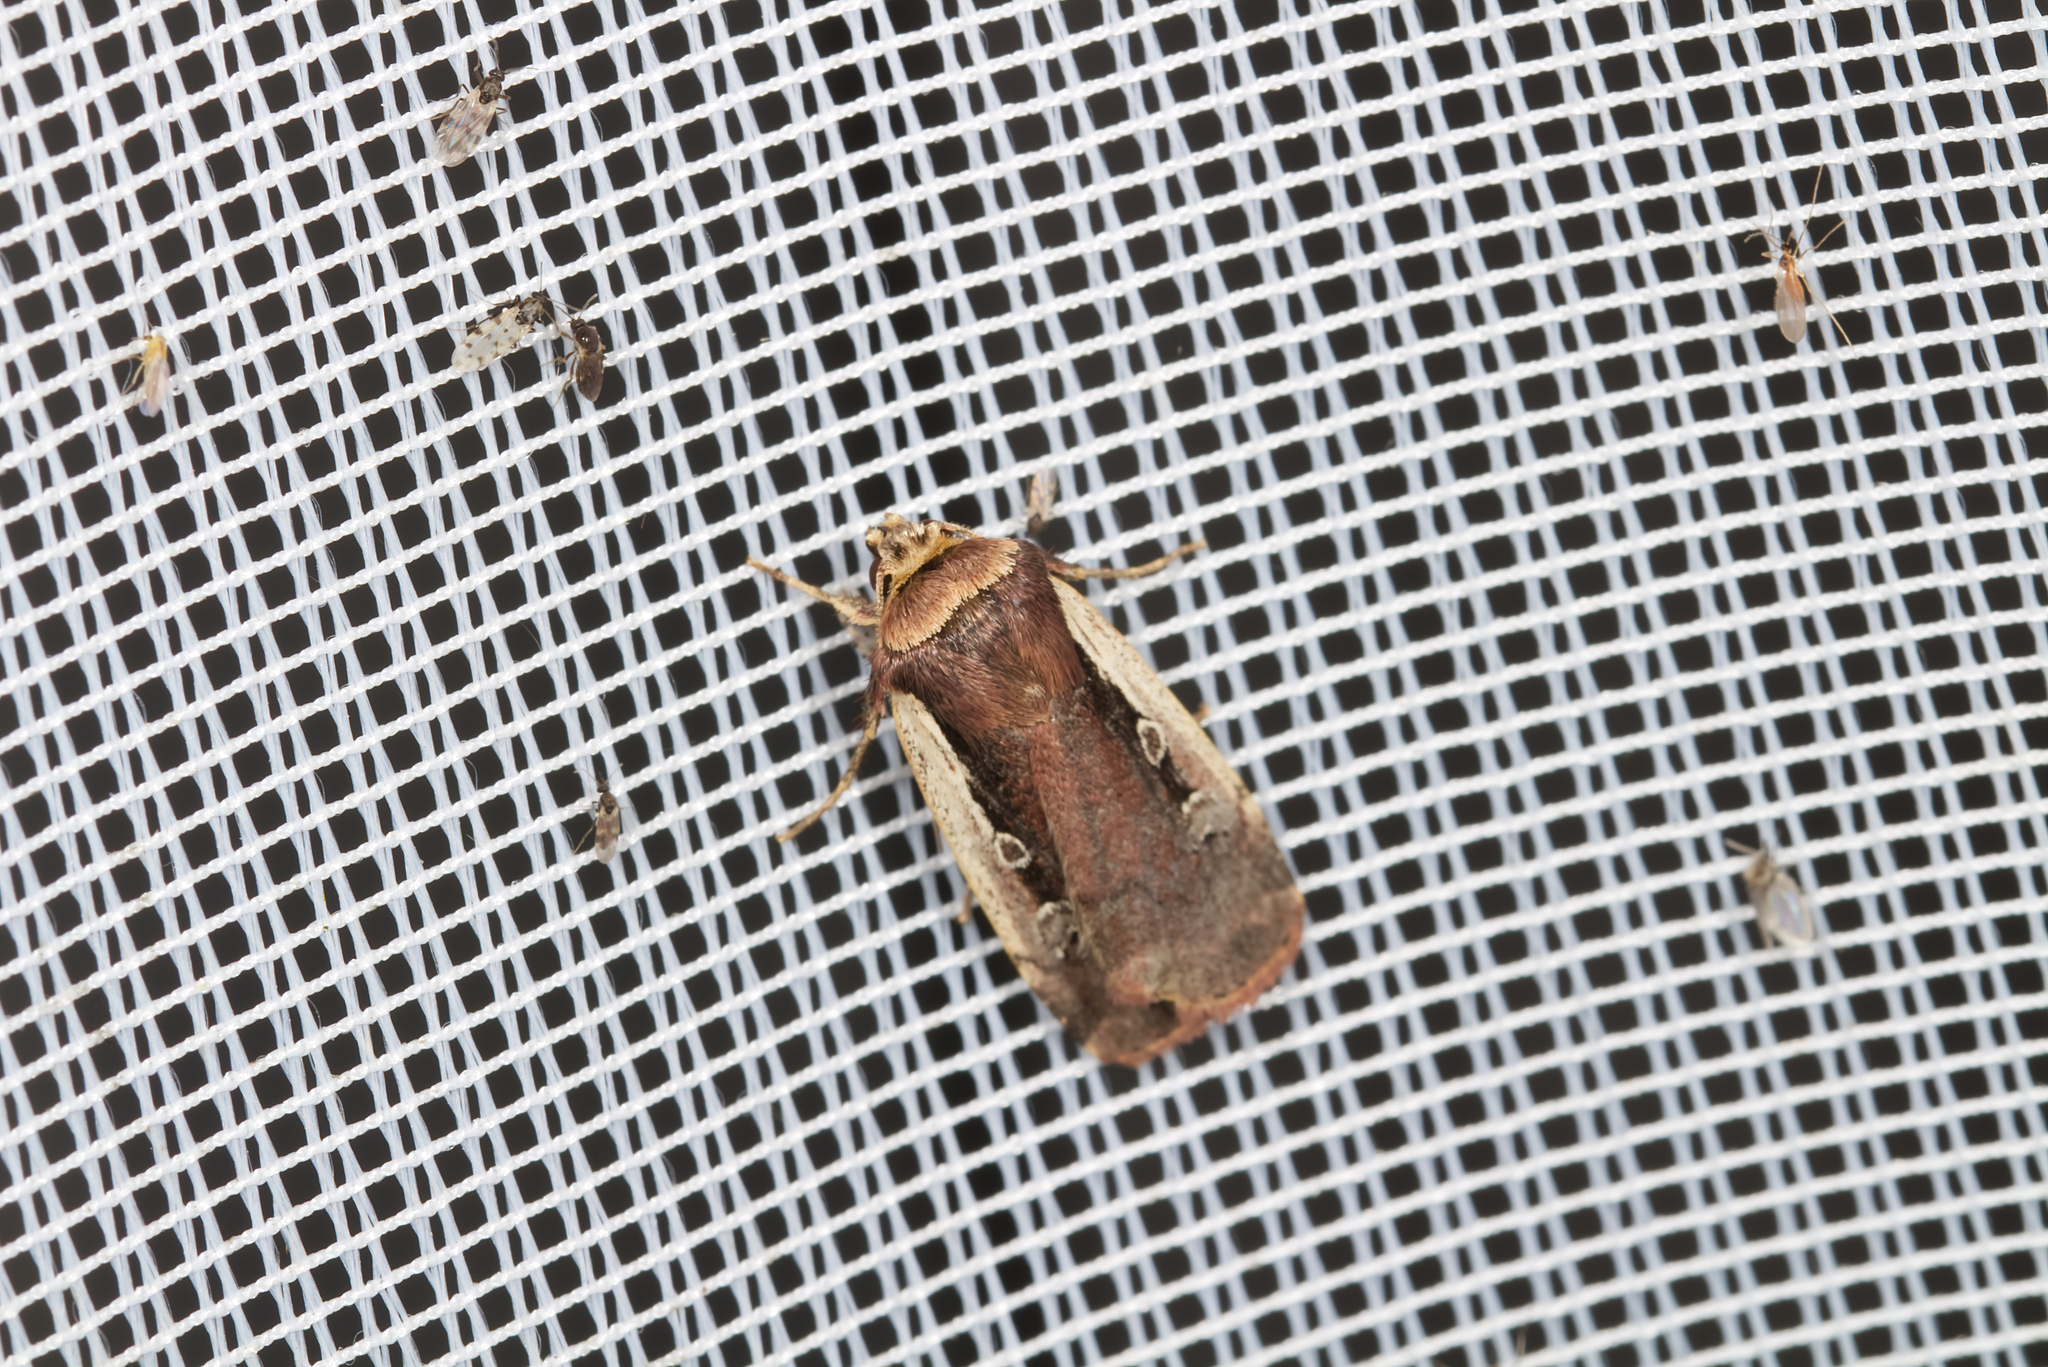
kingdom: Animalia
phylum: Arthropoda
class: Insecta
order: Lepidoptera
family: Noctuidae
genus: Ochropleura
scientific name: Ochropleura plecta
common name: Flame shoulder
